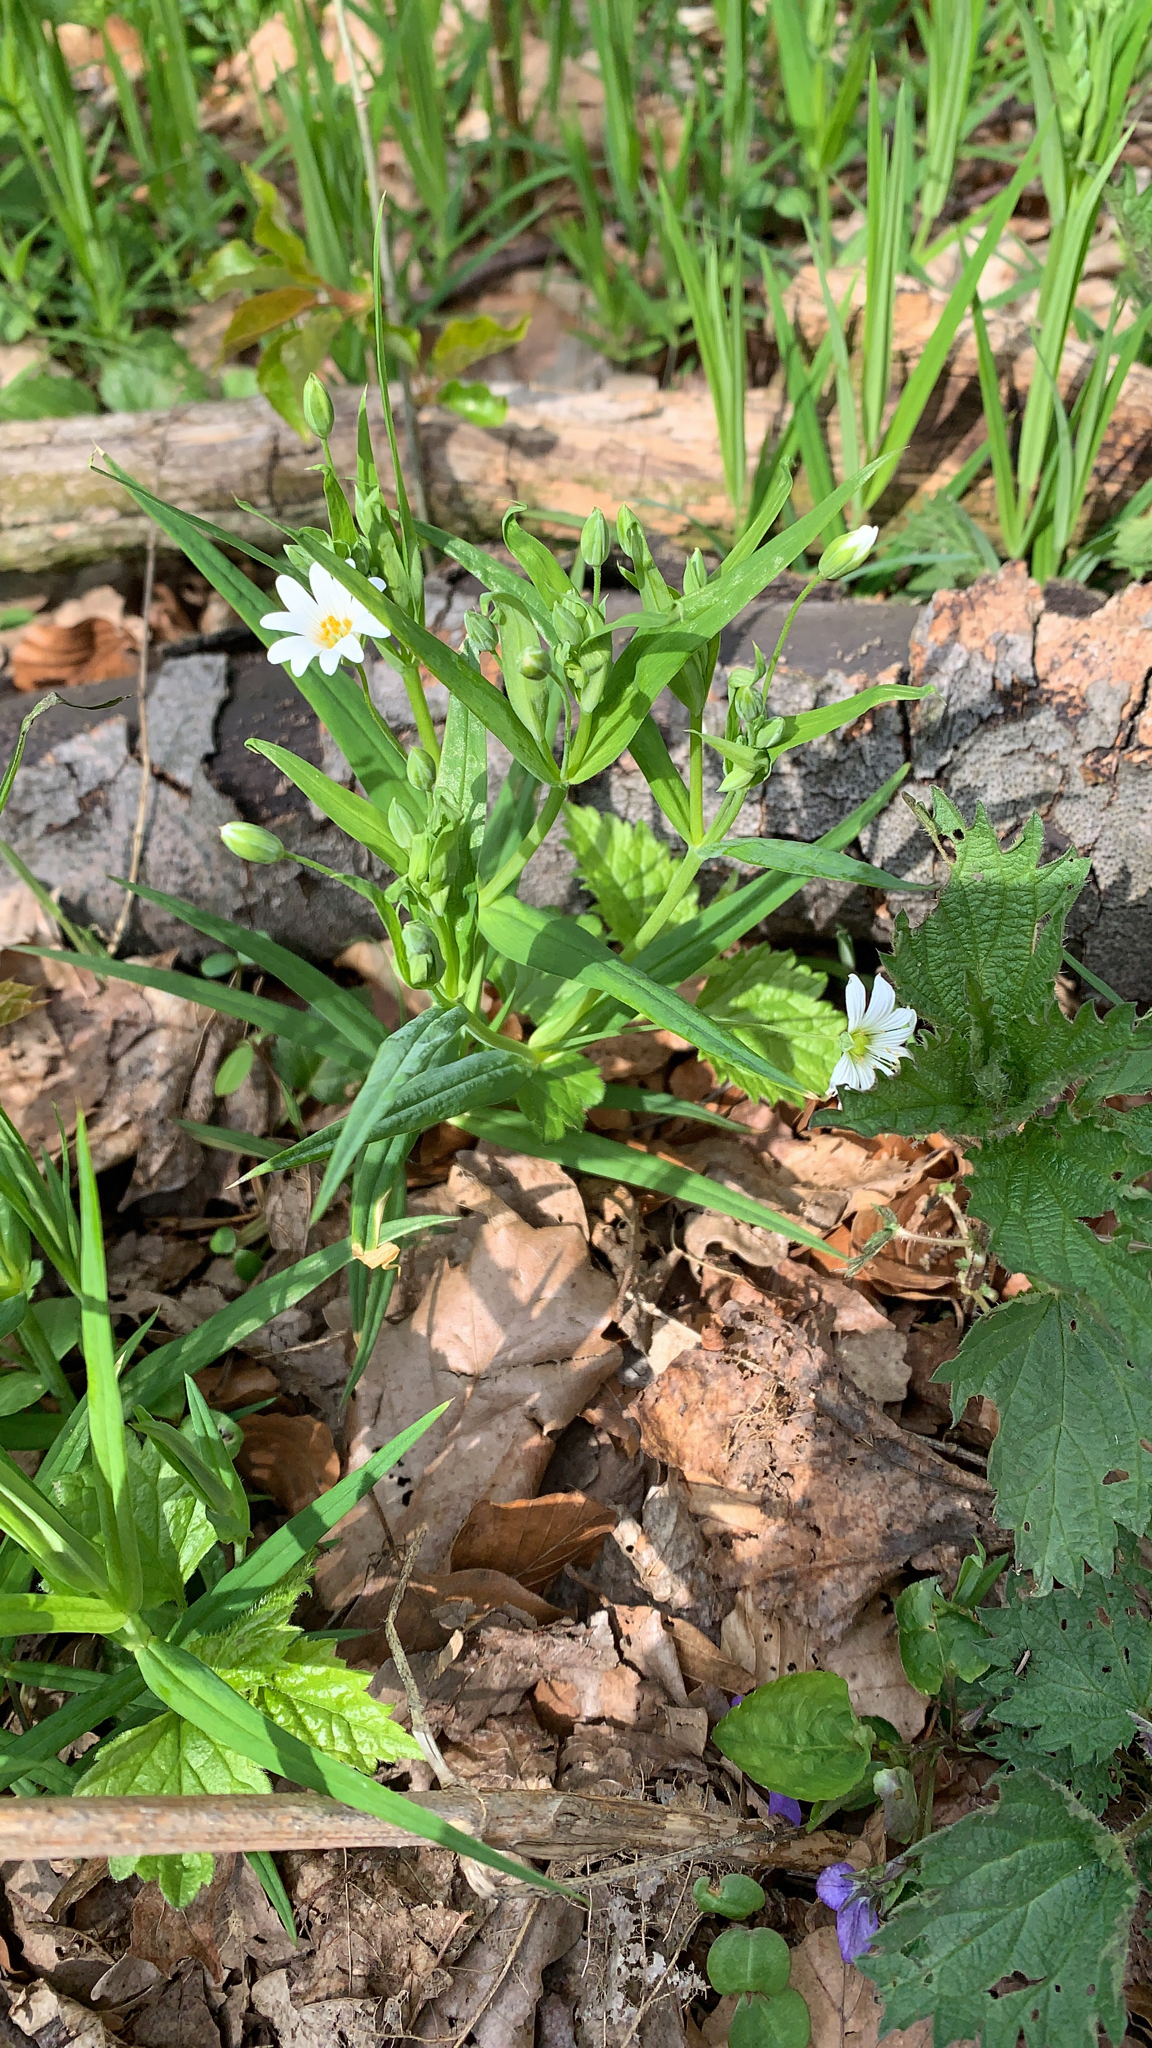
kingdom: Plantae
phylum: Tracheophyta
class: Magnoliopsida
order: Caryophyllales
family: Caryophyllaceae
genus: Rabelera
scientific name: Rabelera holostea
